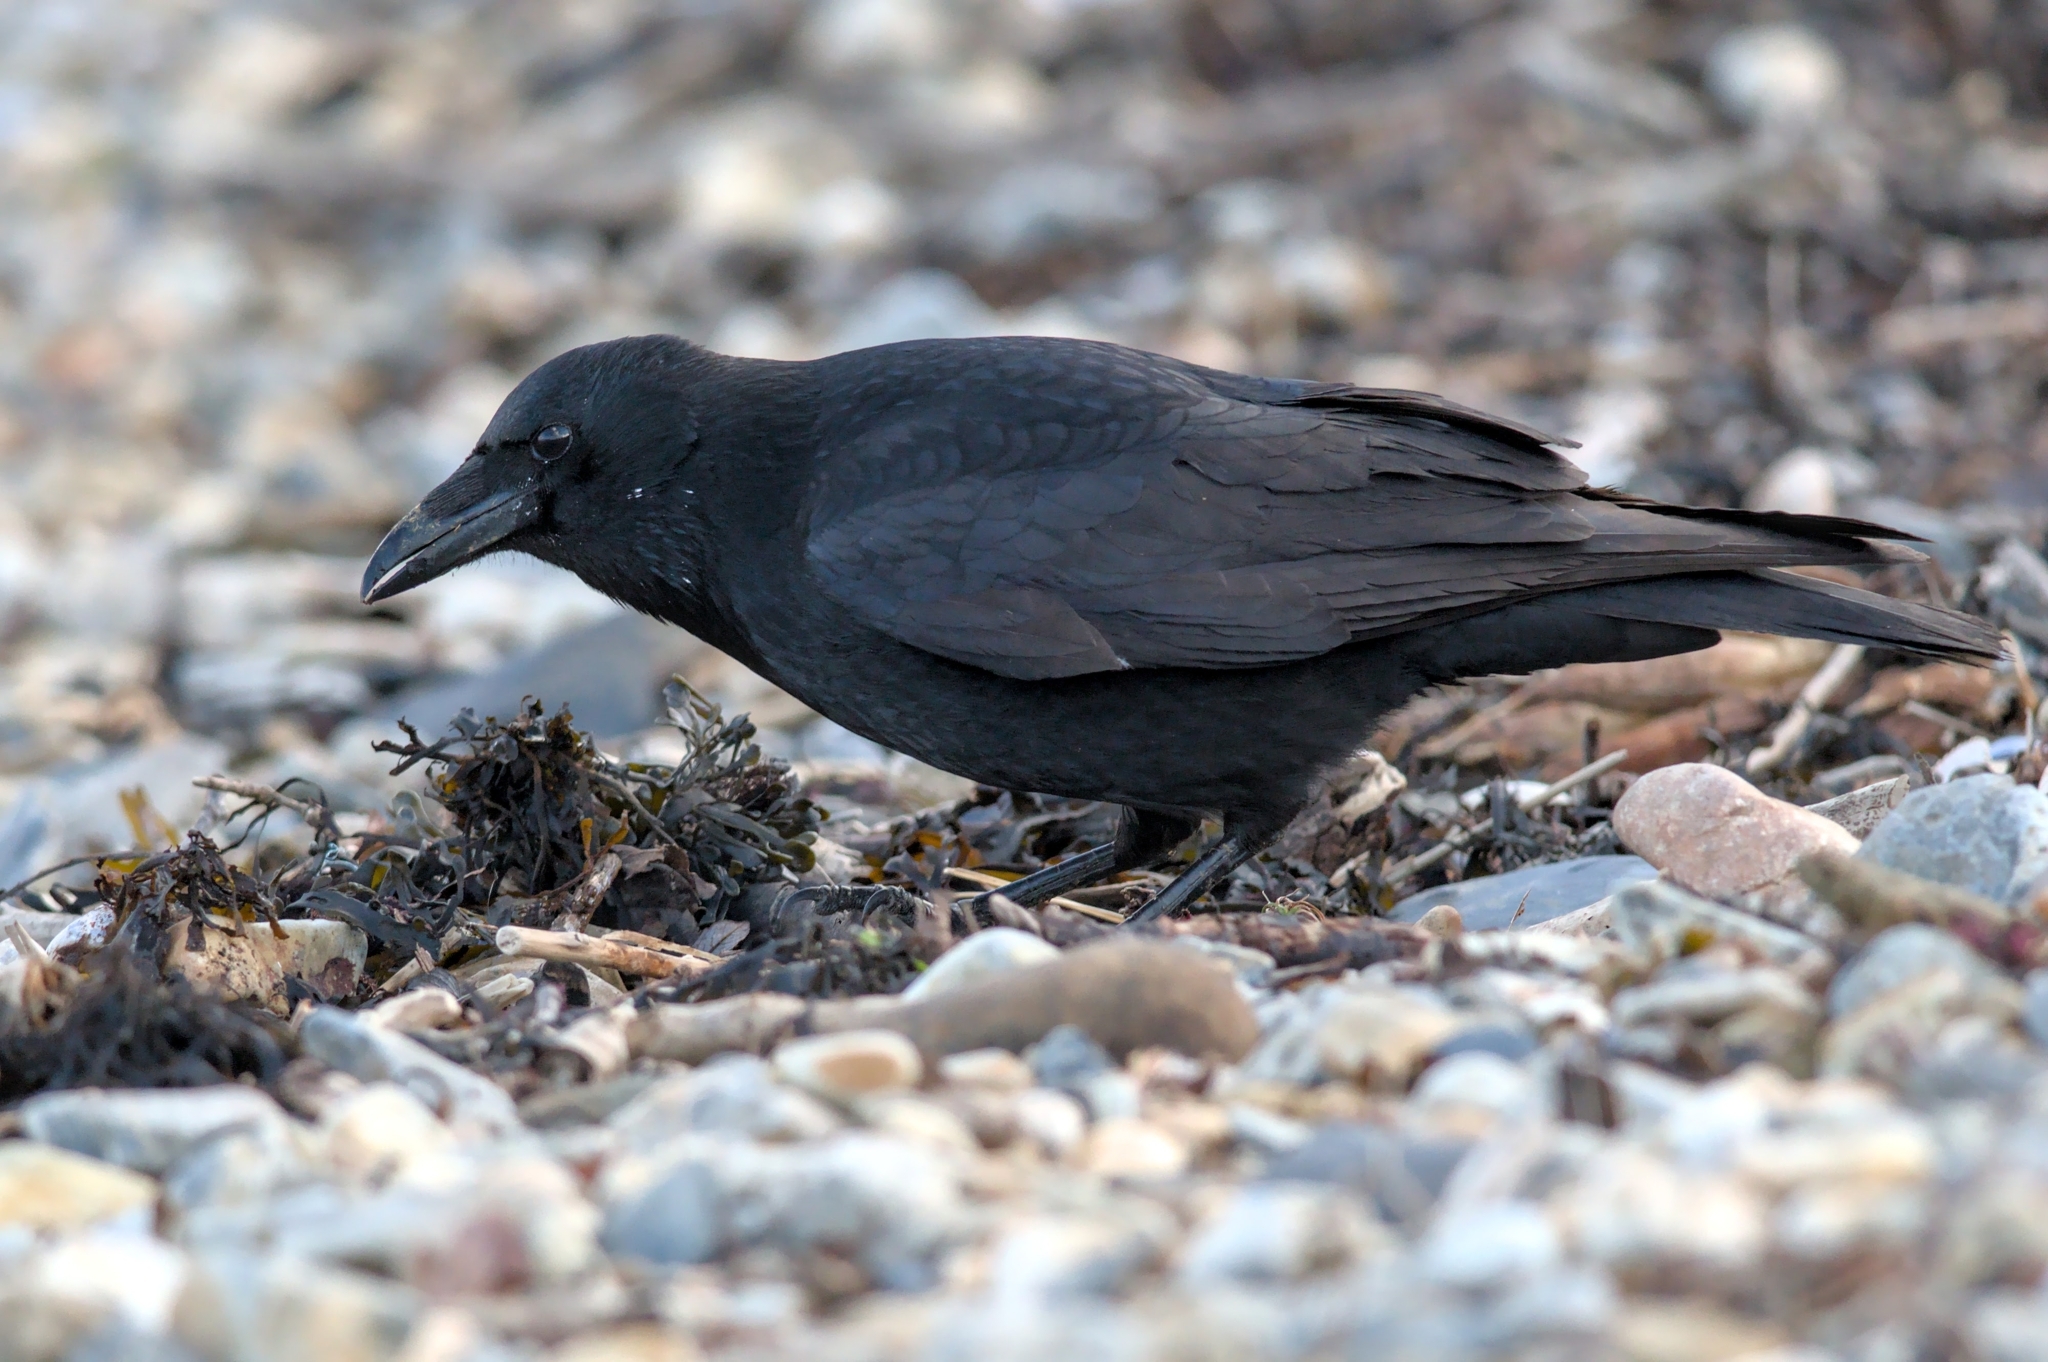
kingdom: Animalia
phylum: Chordata
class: Aves
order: Passeriformes
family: Corvidae
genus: Corvus
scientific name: Corvus corone
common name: Carrion crow
